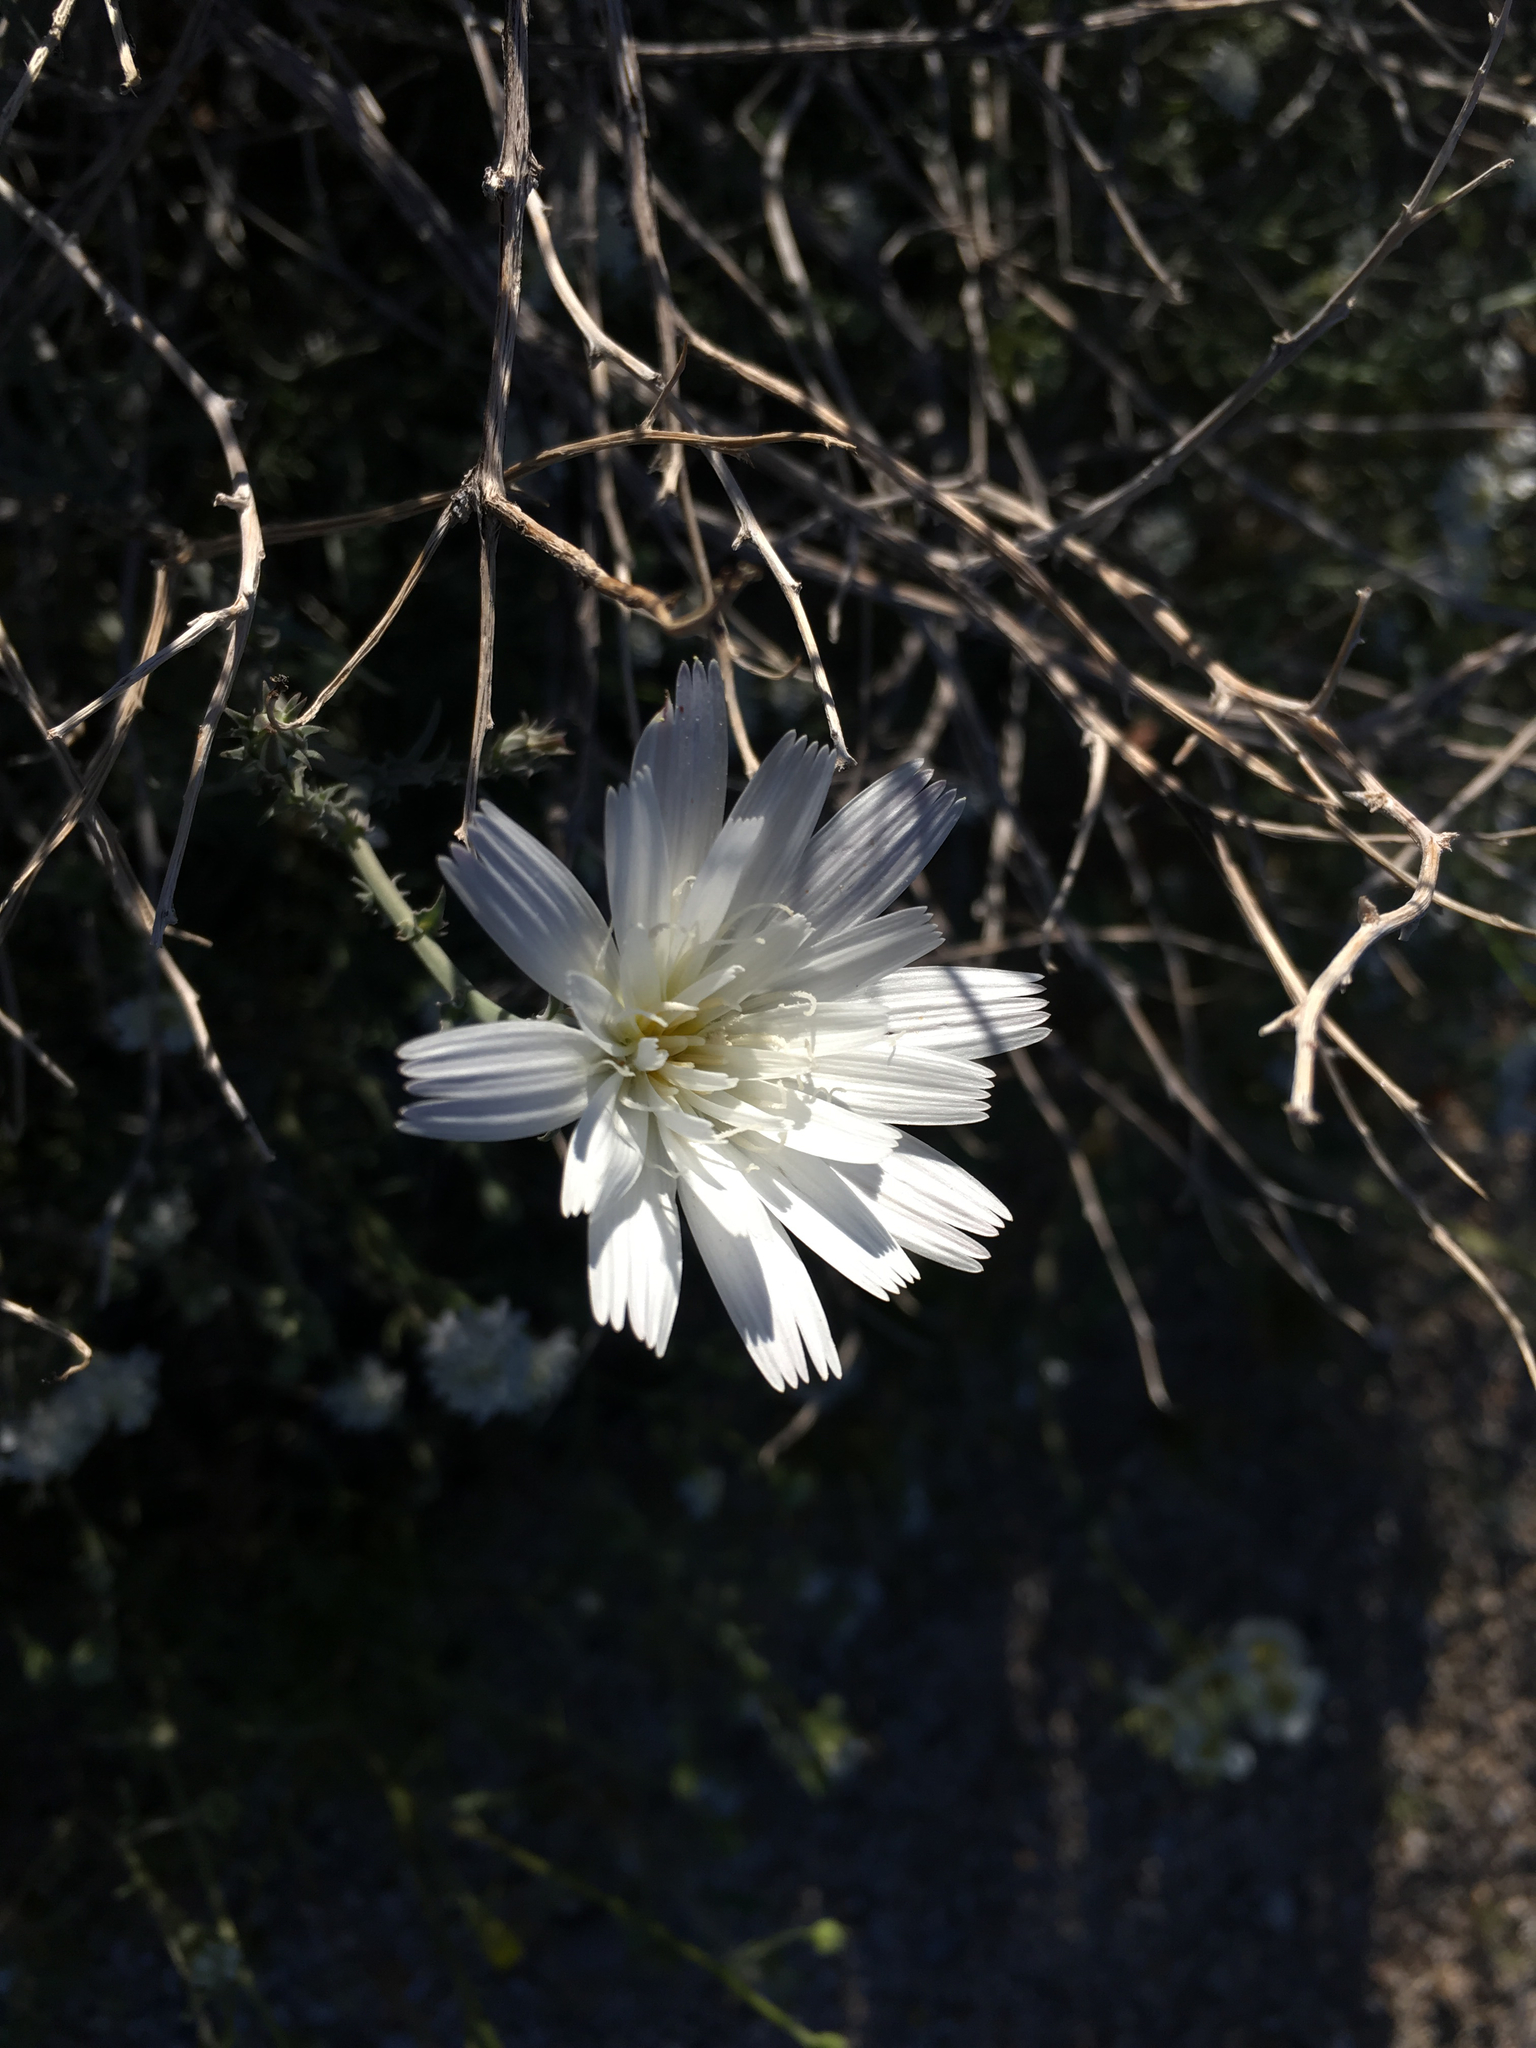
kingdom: Plantae
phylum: Tracheophyta
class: Magnoliopsida
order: Asterales
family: Asteraceae
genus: Rafinesquia
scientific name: Rafinesquia neomexicana
